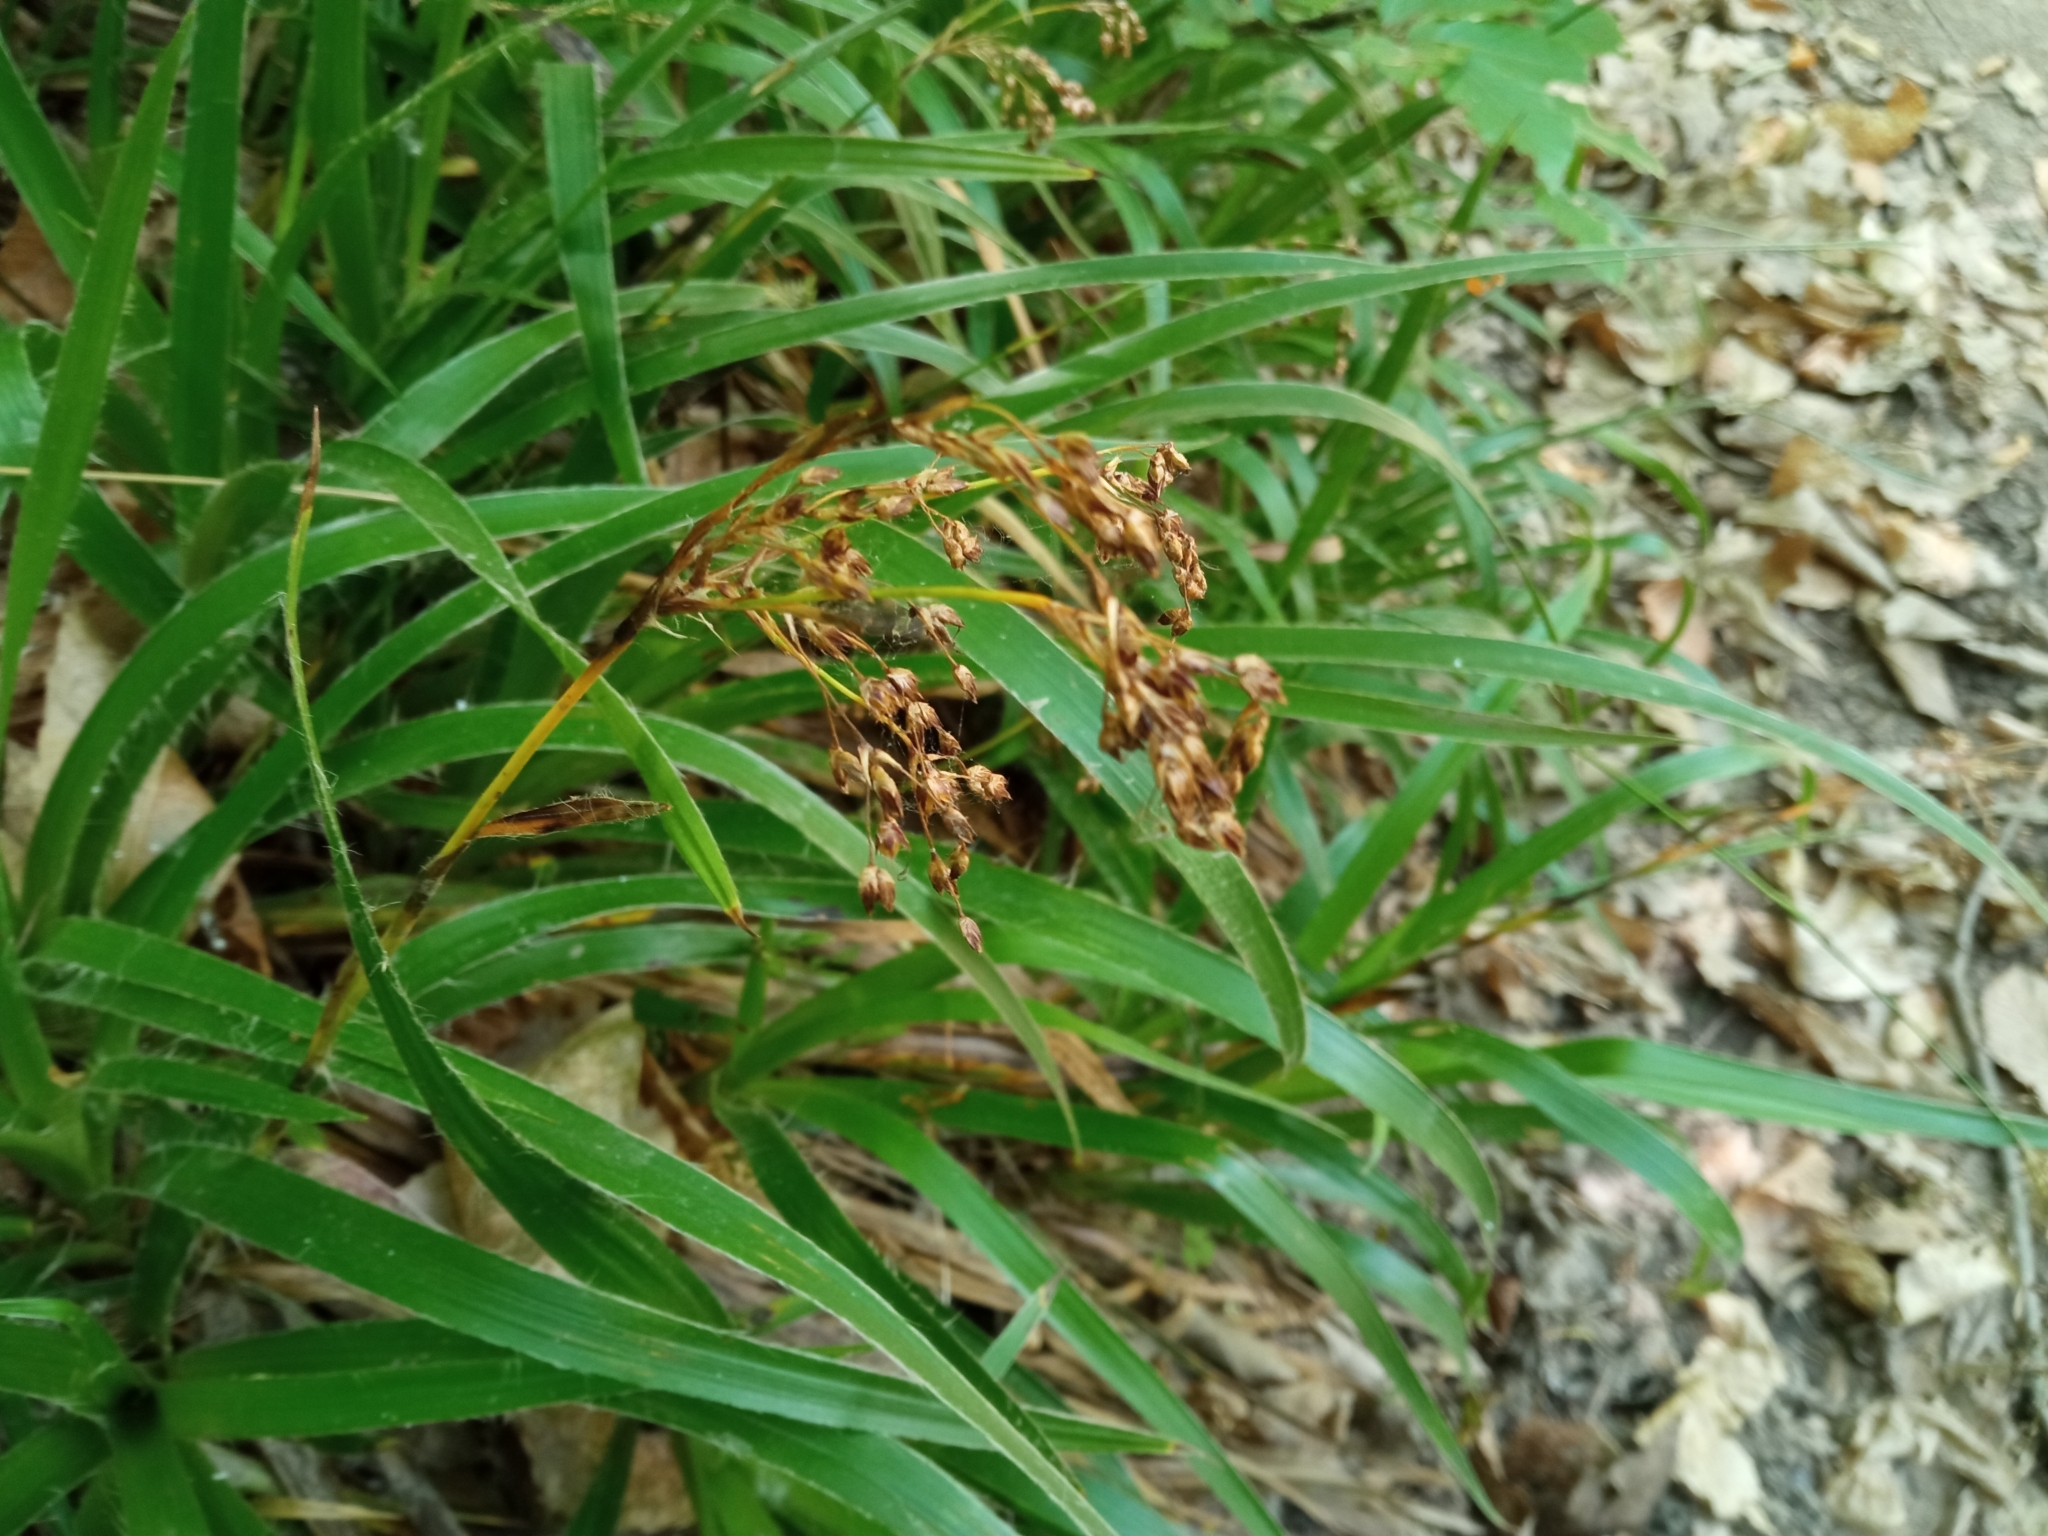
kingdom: Plantae
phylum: Tracheophyta
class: Liliopsida
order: Poales
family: Juncaceae
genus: Luzula
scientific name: Luzula sylvatica
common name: Great wood-rush
